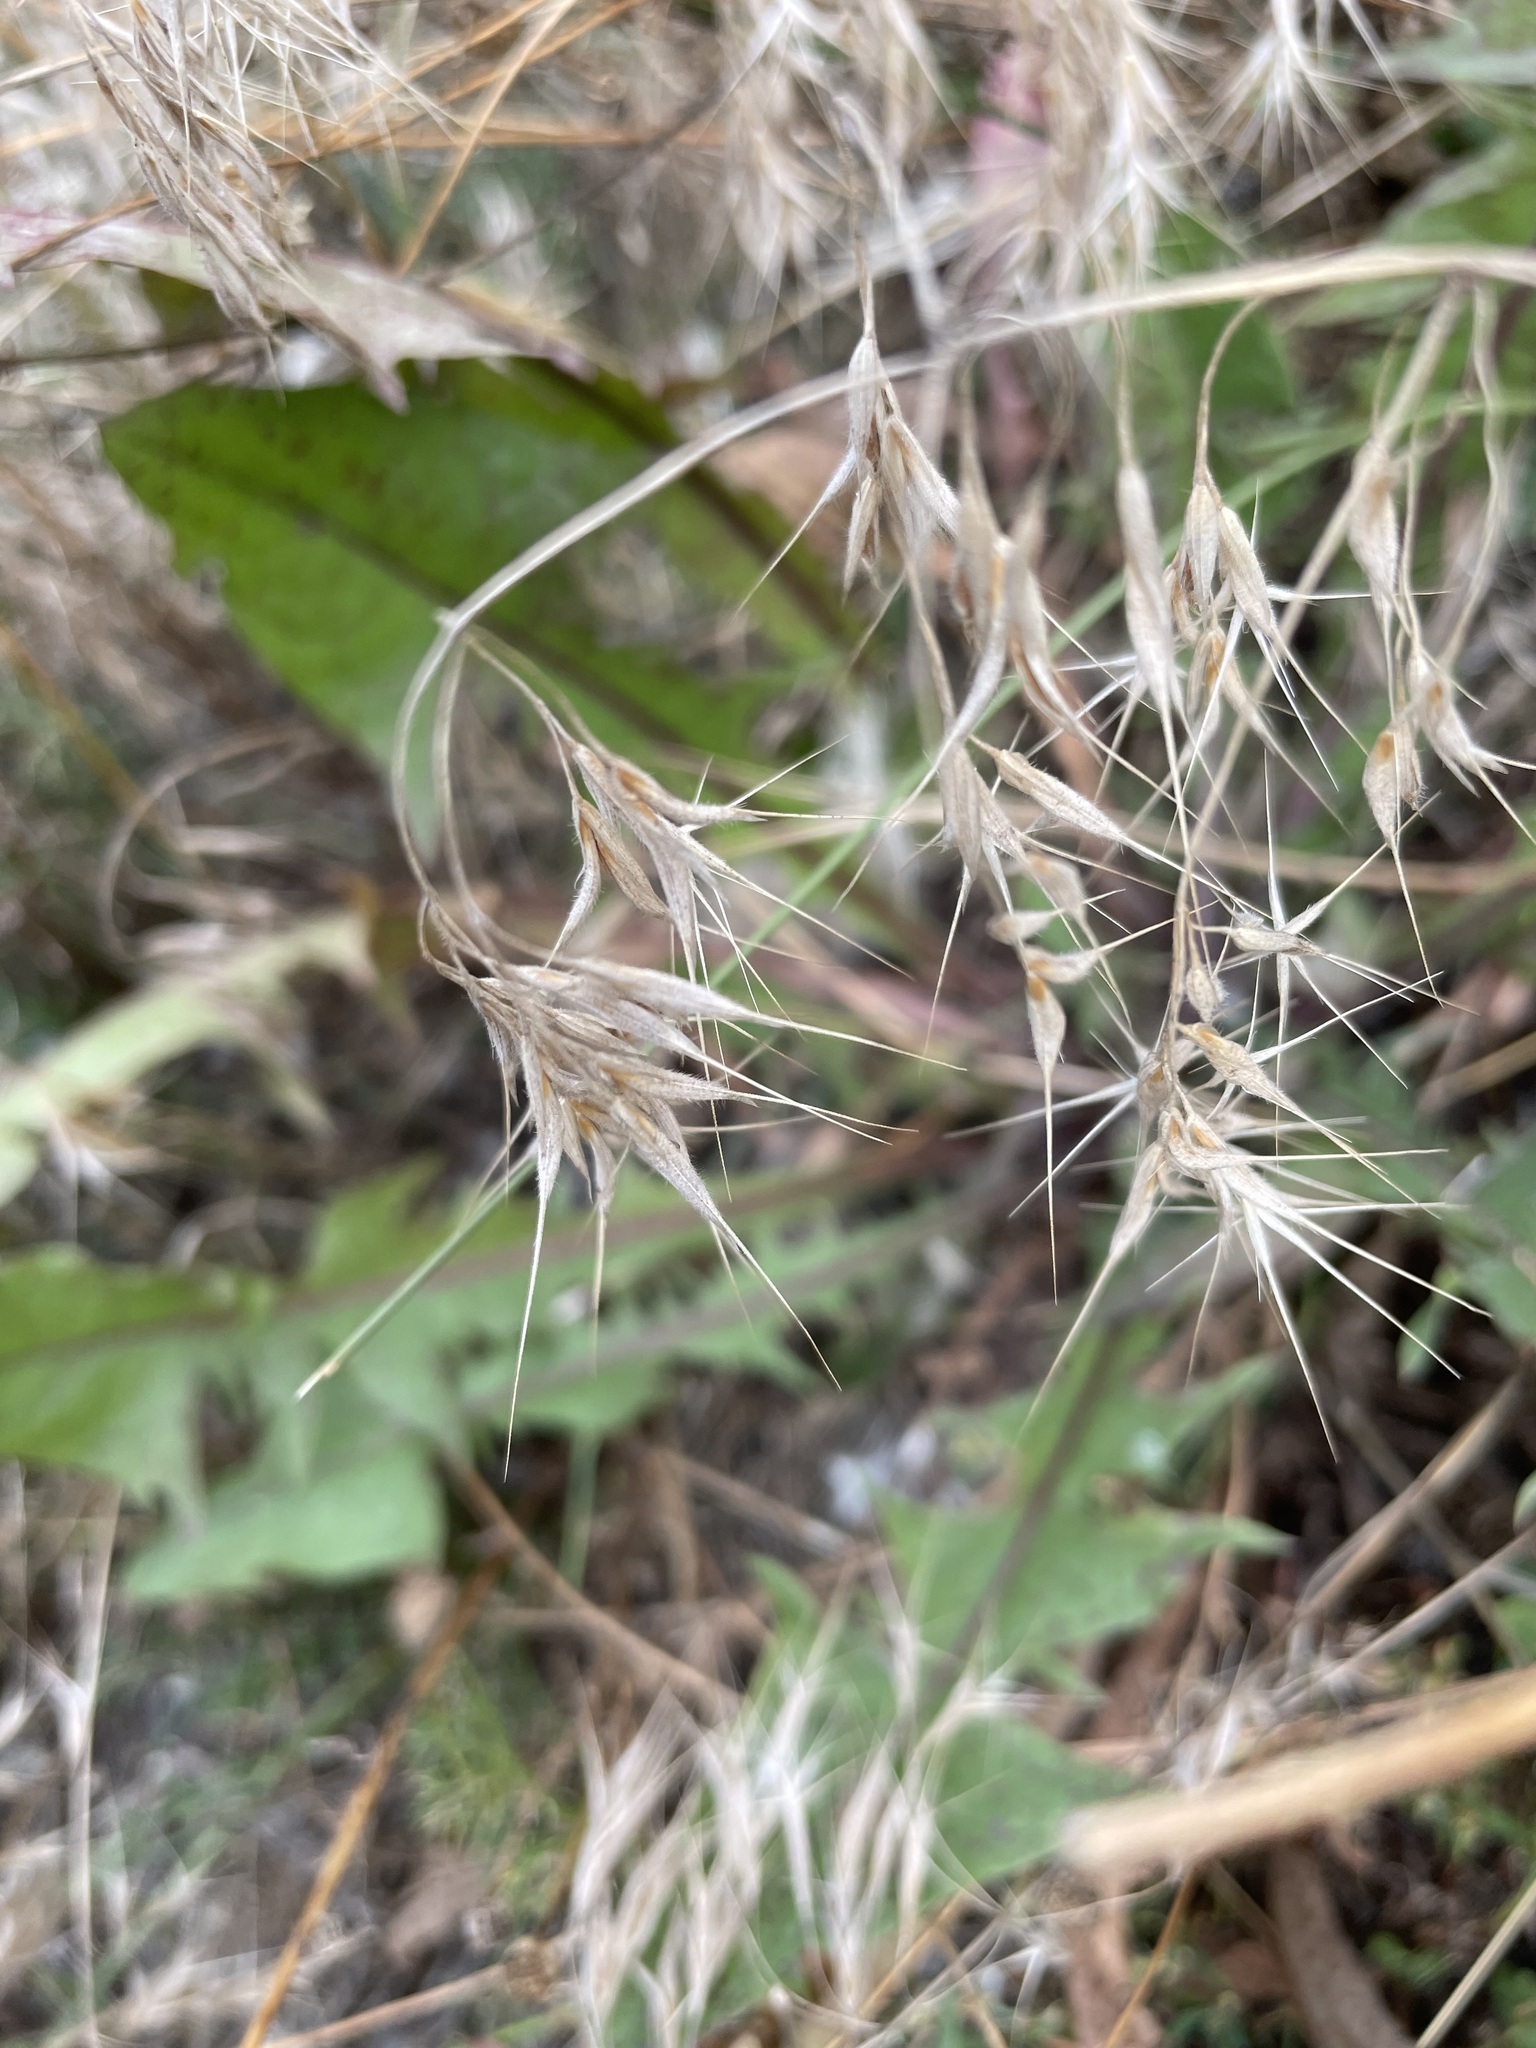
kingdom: Plantae
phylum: Tracheophyta
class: Liliopsida
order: Poales
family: Poaceae
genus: Bromus
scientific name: Bromus tectorum
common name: Cheatgrass
